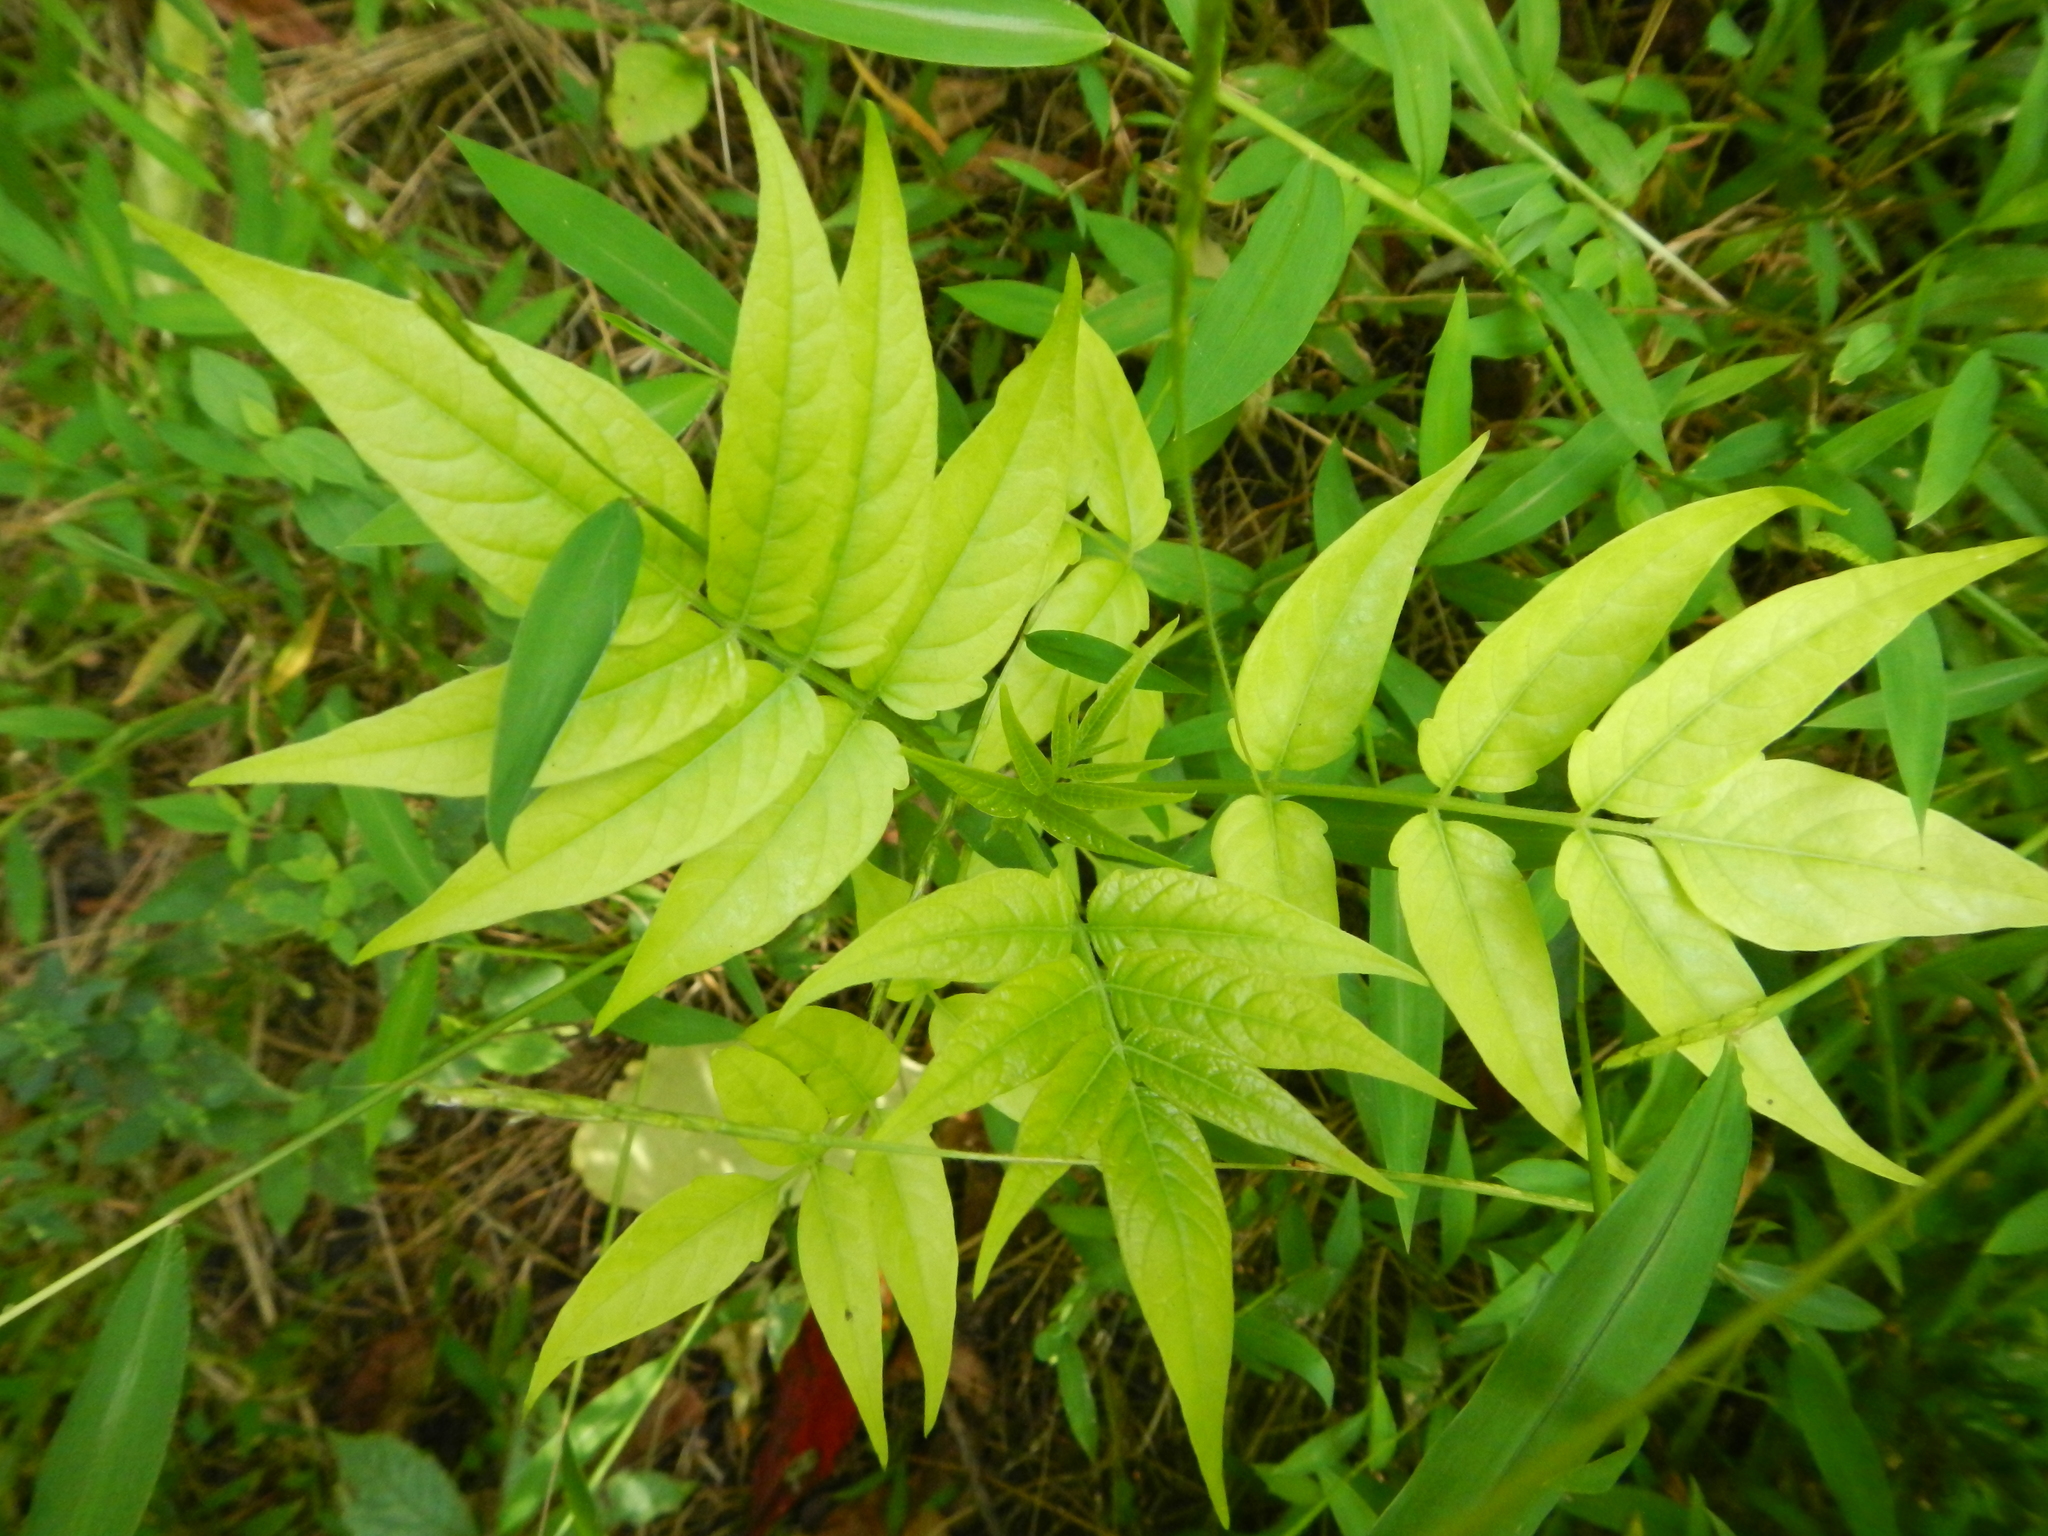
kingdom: Plantae
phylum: Tracheophyta
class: Magnoliopsida
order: Sapindales
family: Simaroubaceae
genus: Ailanthus
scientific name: Ailanthus altissima
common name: Tree-of-heaven
